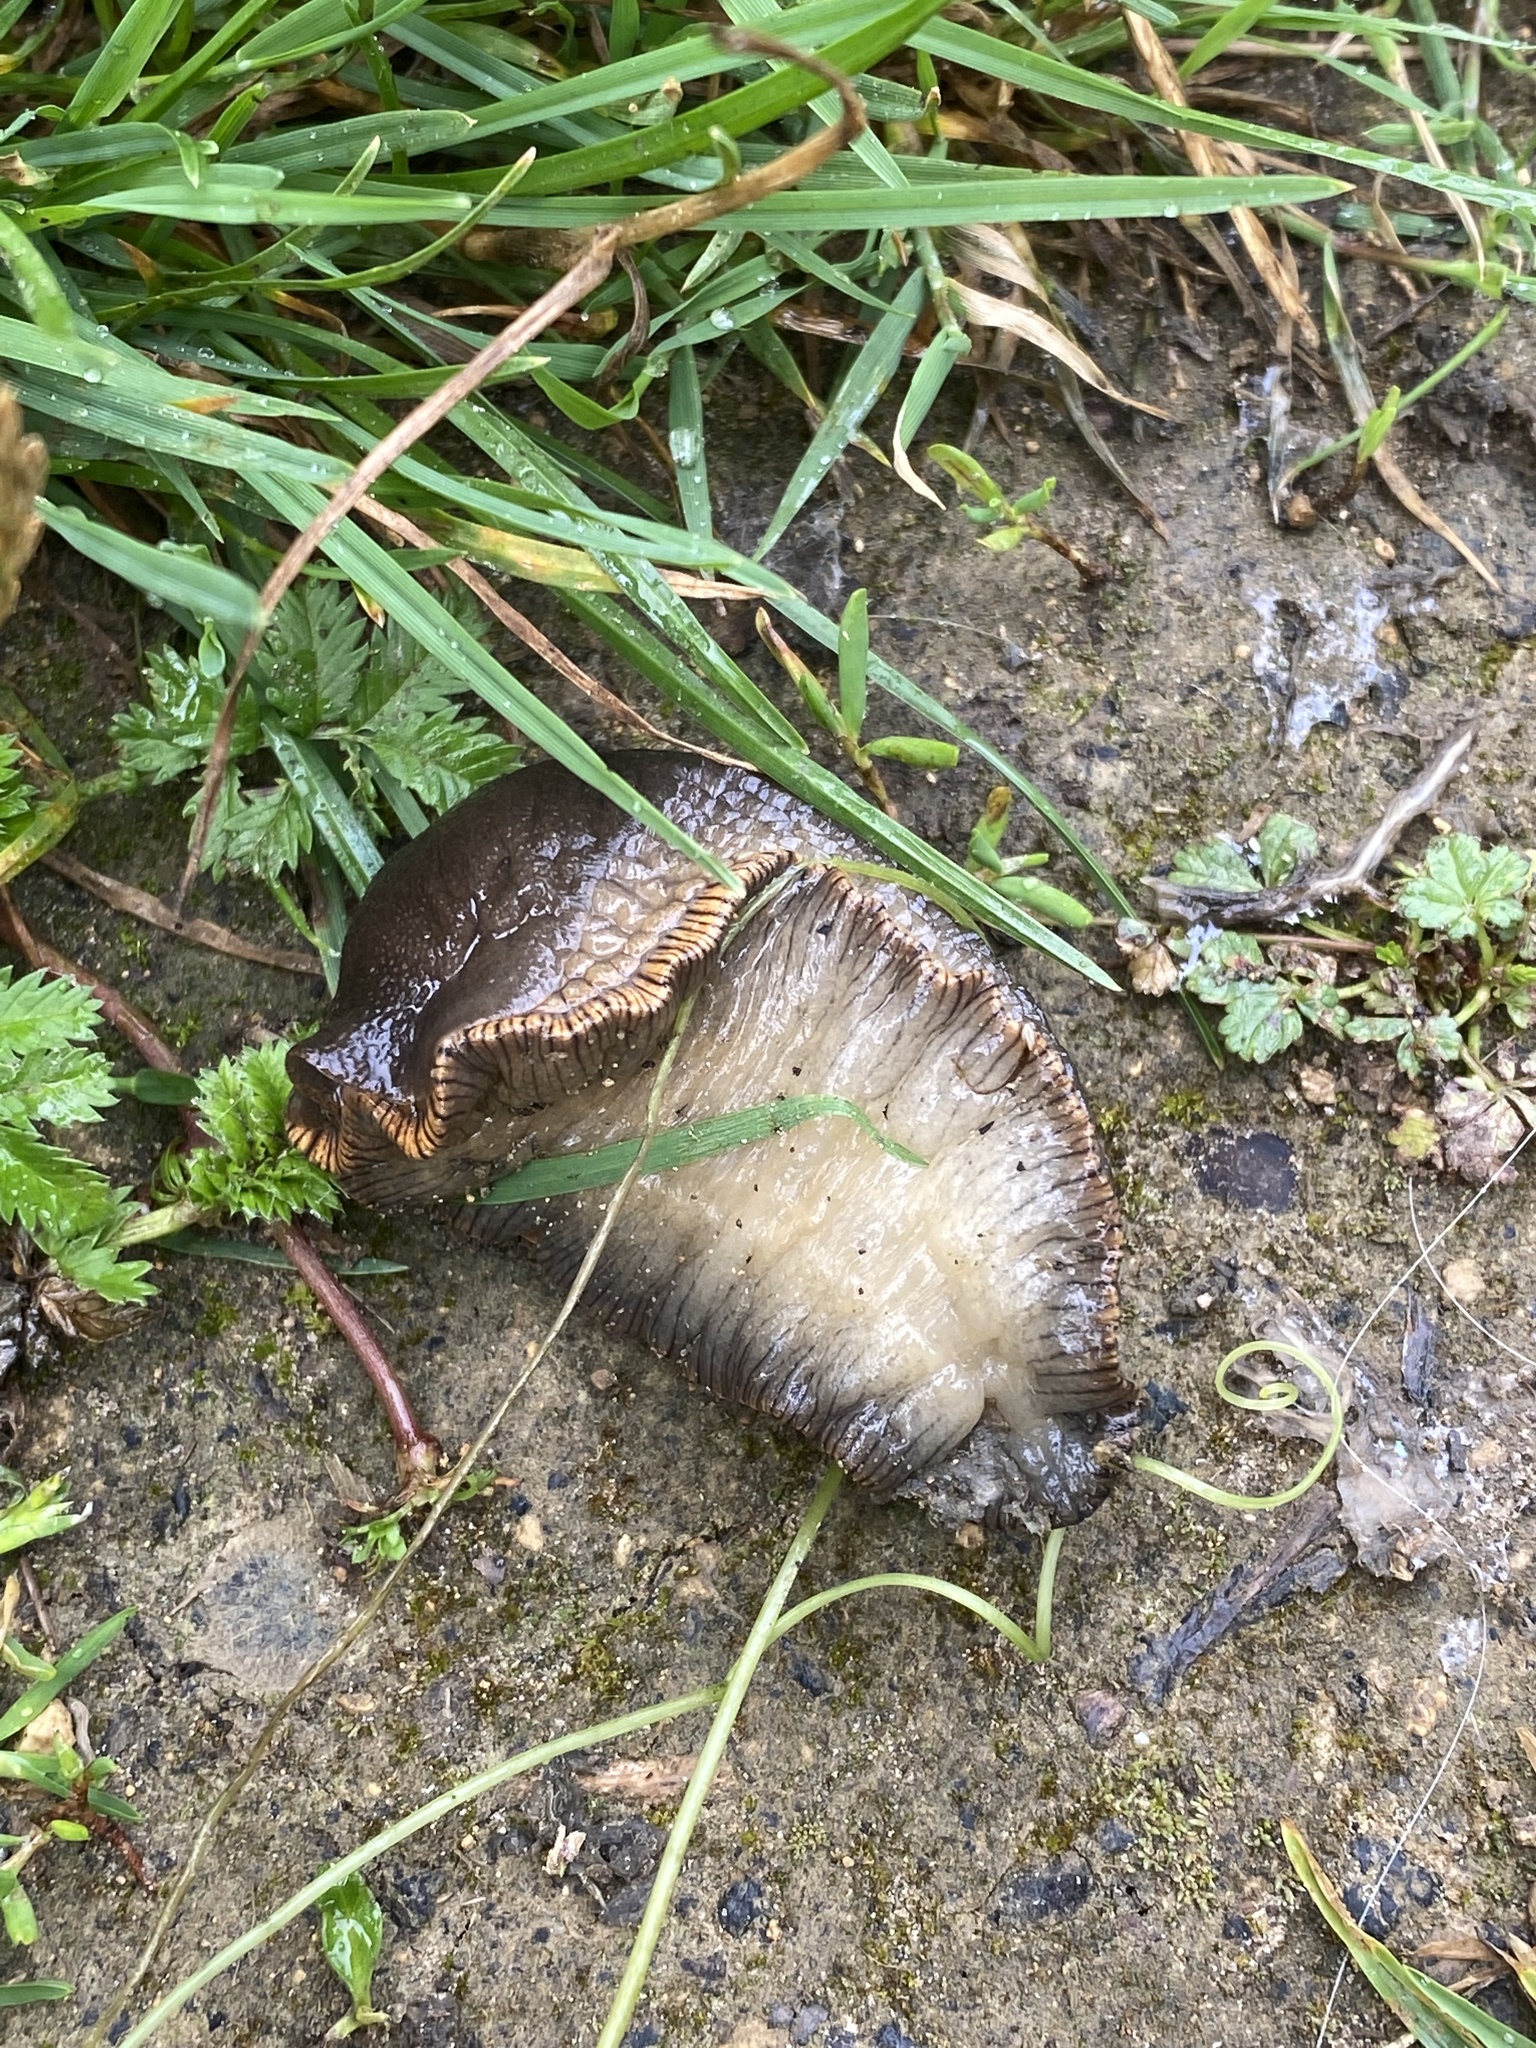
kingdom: Animalia
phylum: Mollusca
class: Gastropoda
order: Stylommatophora
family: Arionidae
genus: Arion
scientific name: Arion
